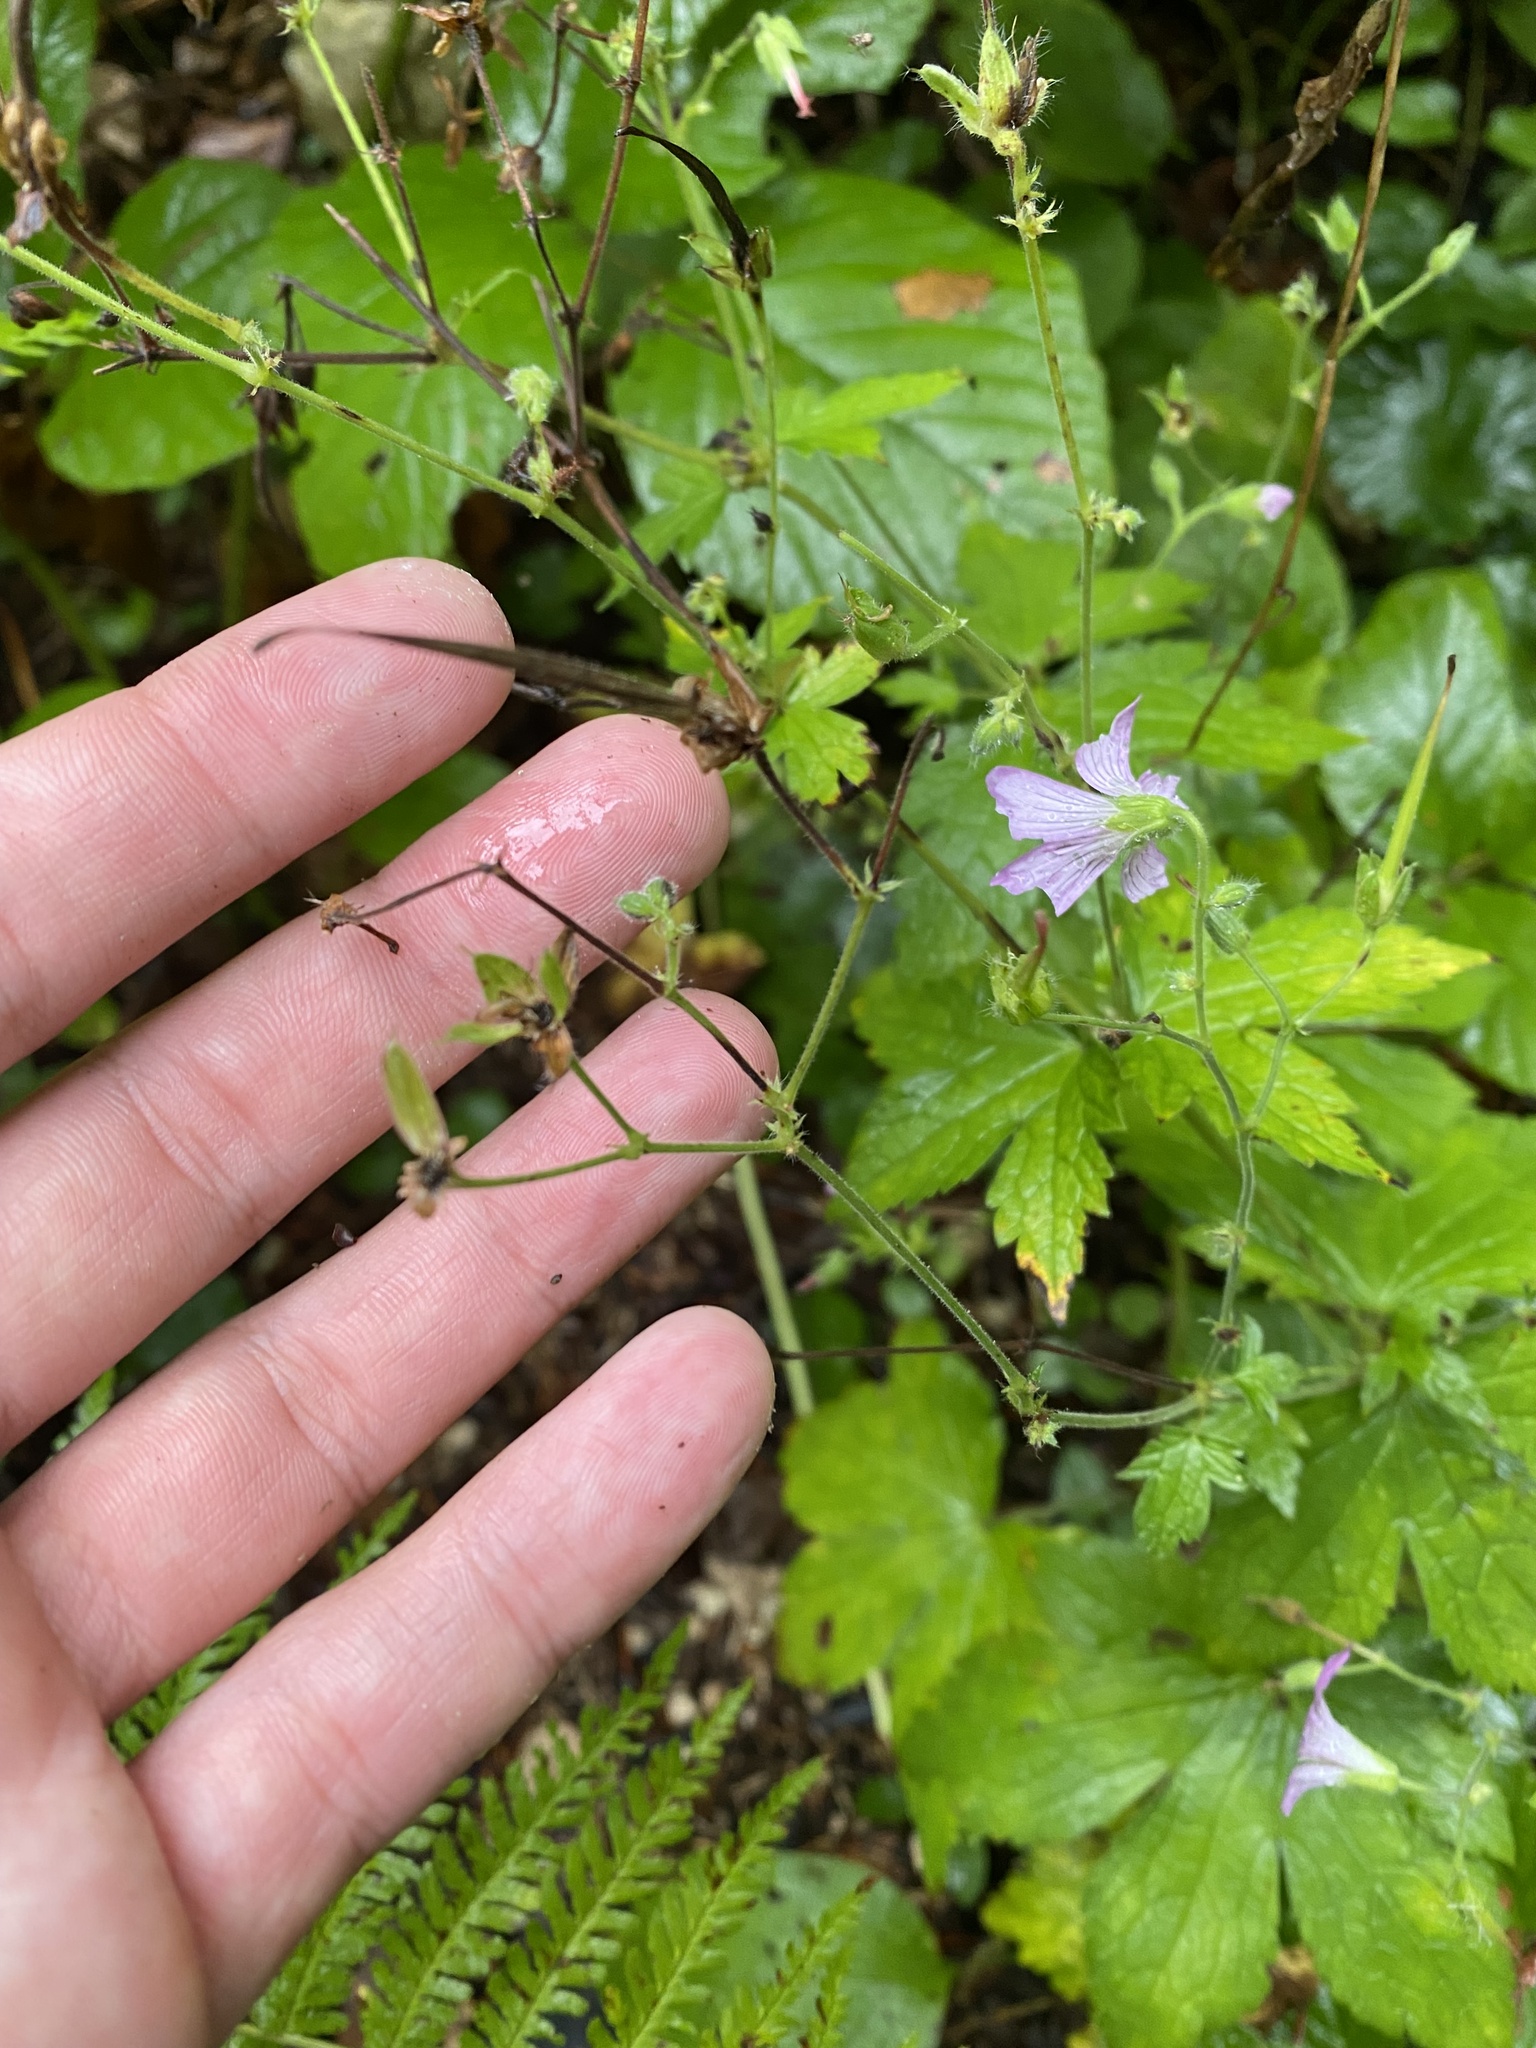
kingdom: Plantae
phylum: Tracheophyta
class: Magnoliopsida
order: Geraniales
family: Geraniaceae
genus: Geranium
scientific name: Geranium gracile
